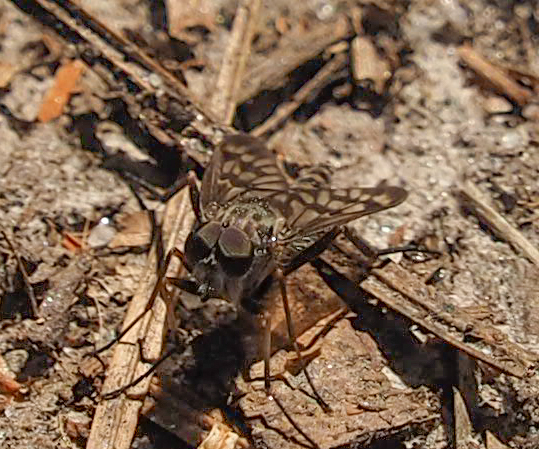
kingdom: Animalia
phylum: Arthropoda
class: Insecta
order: Diptera
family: Rhagionidae
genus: Rhagio
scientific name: Rhagio mystaceus
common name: Common snipe fly
